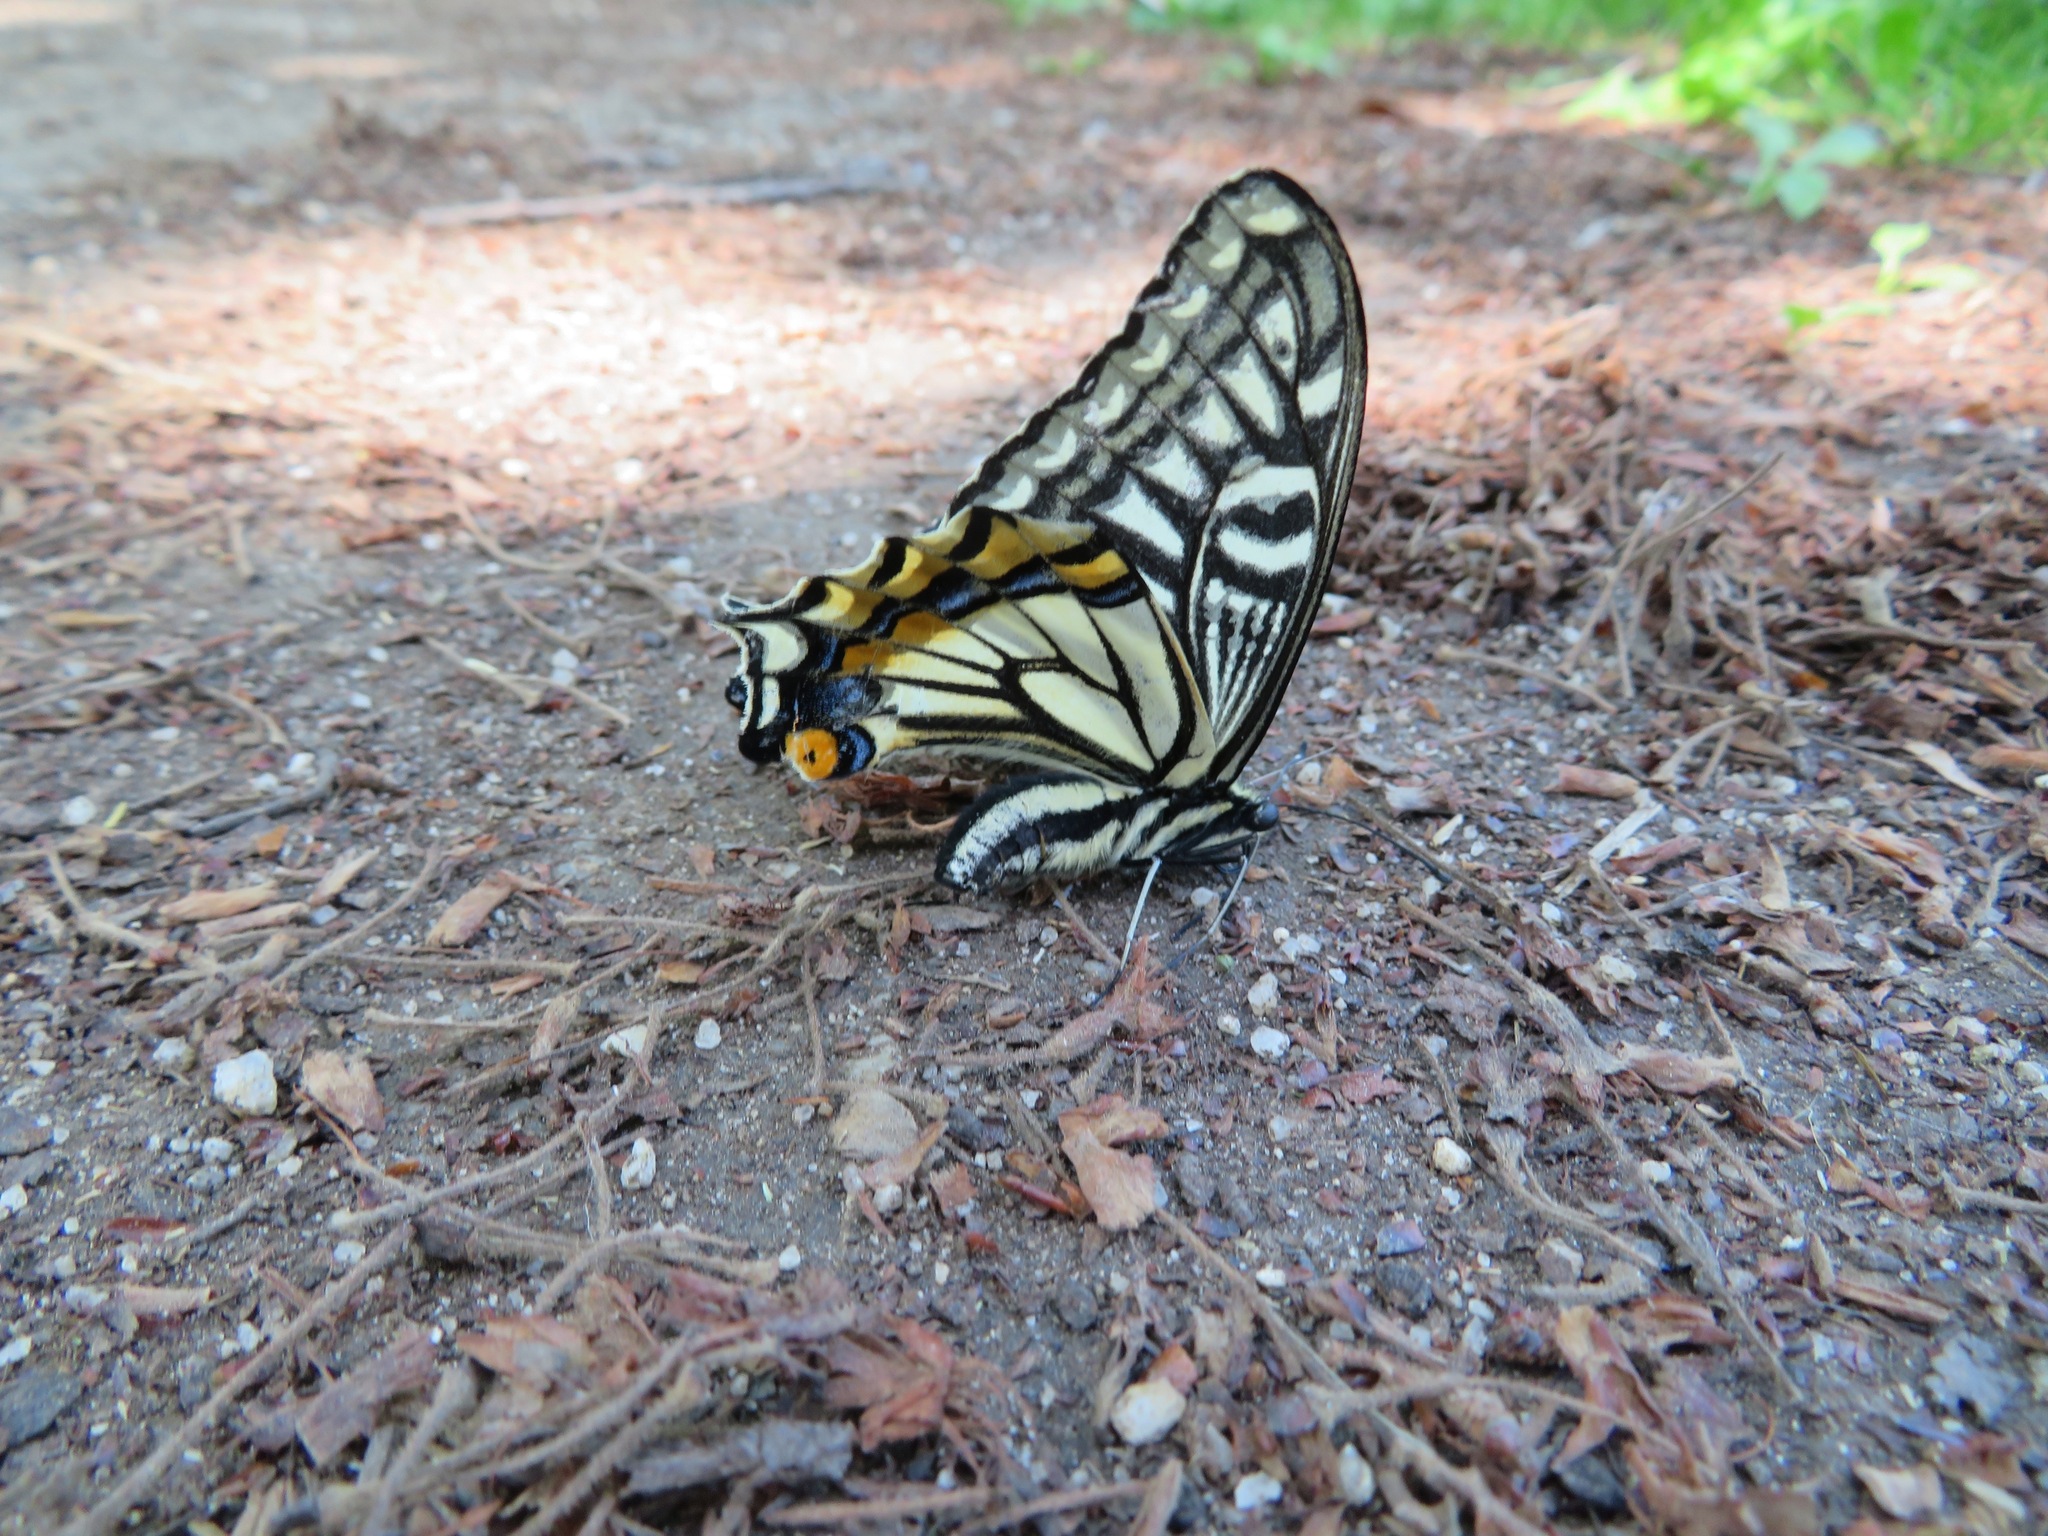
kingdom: Animalia
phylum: Arthropoda
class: Insecta
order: Lepidoptera
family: Papilionidae
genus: Papilio
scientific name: Papilio xuthus
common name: Asian swallowtail
